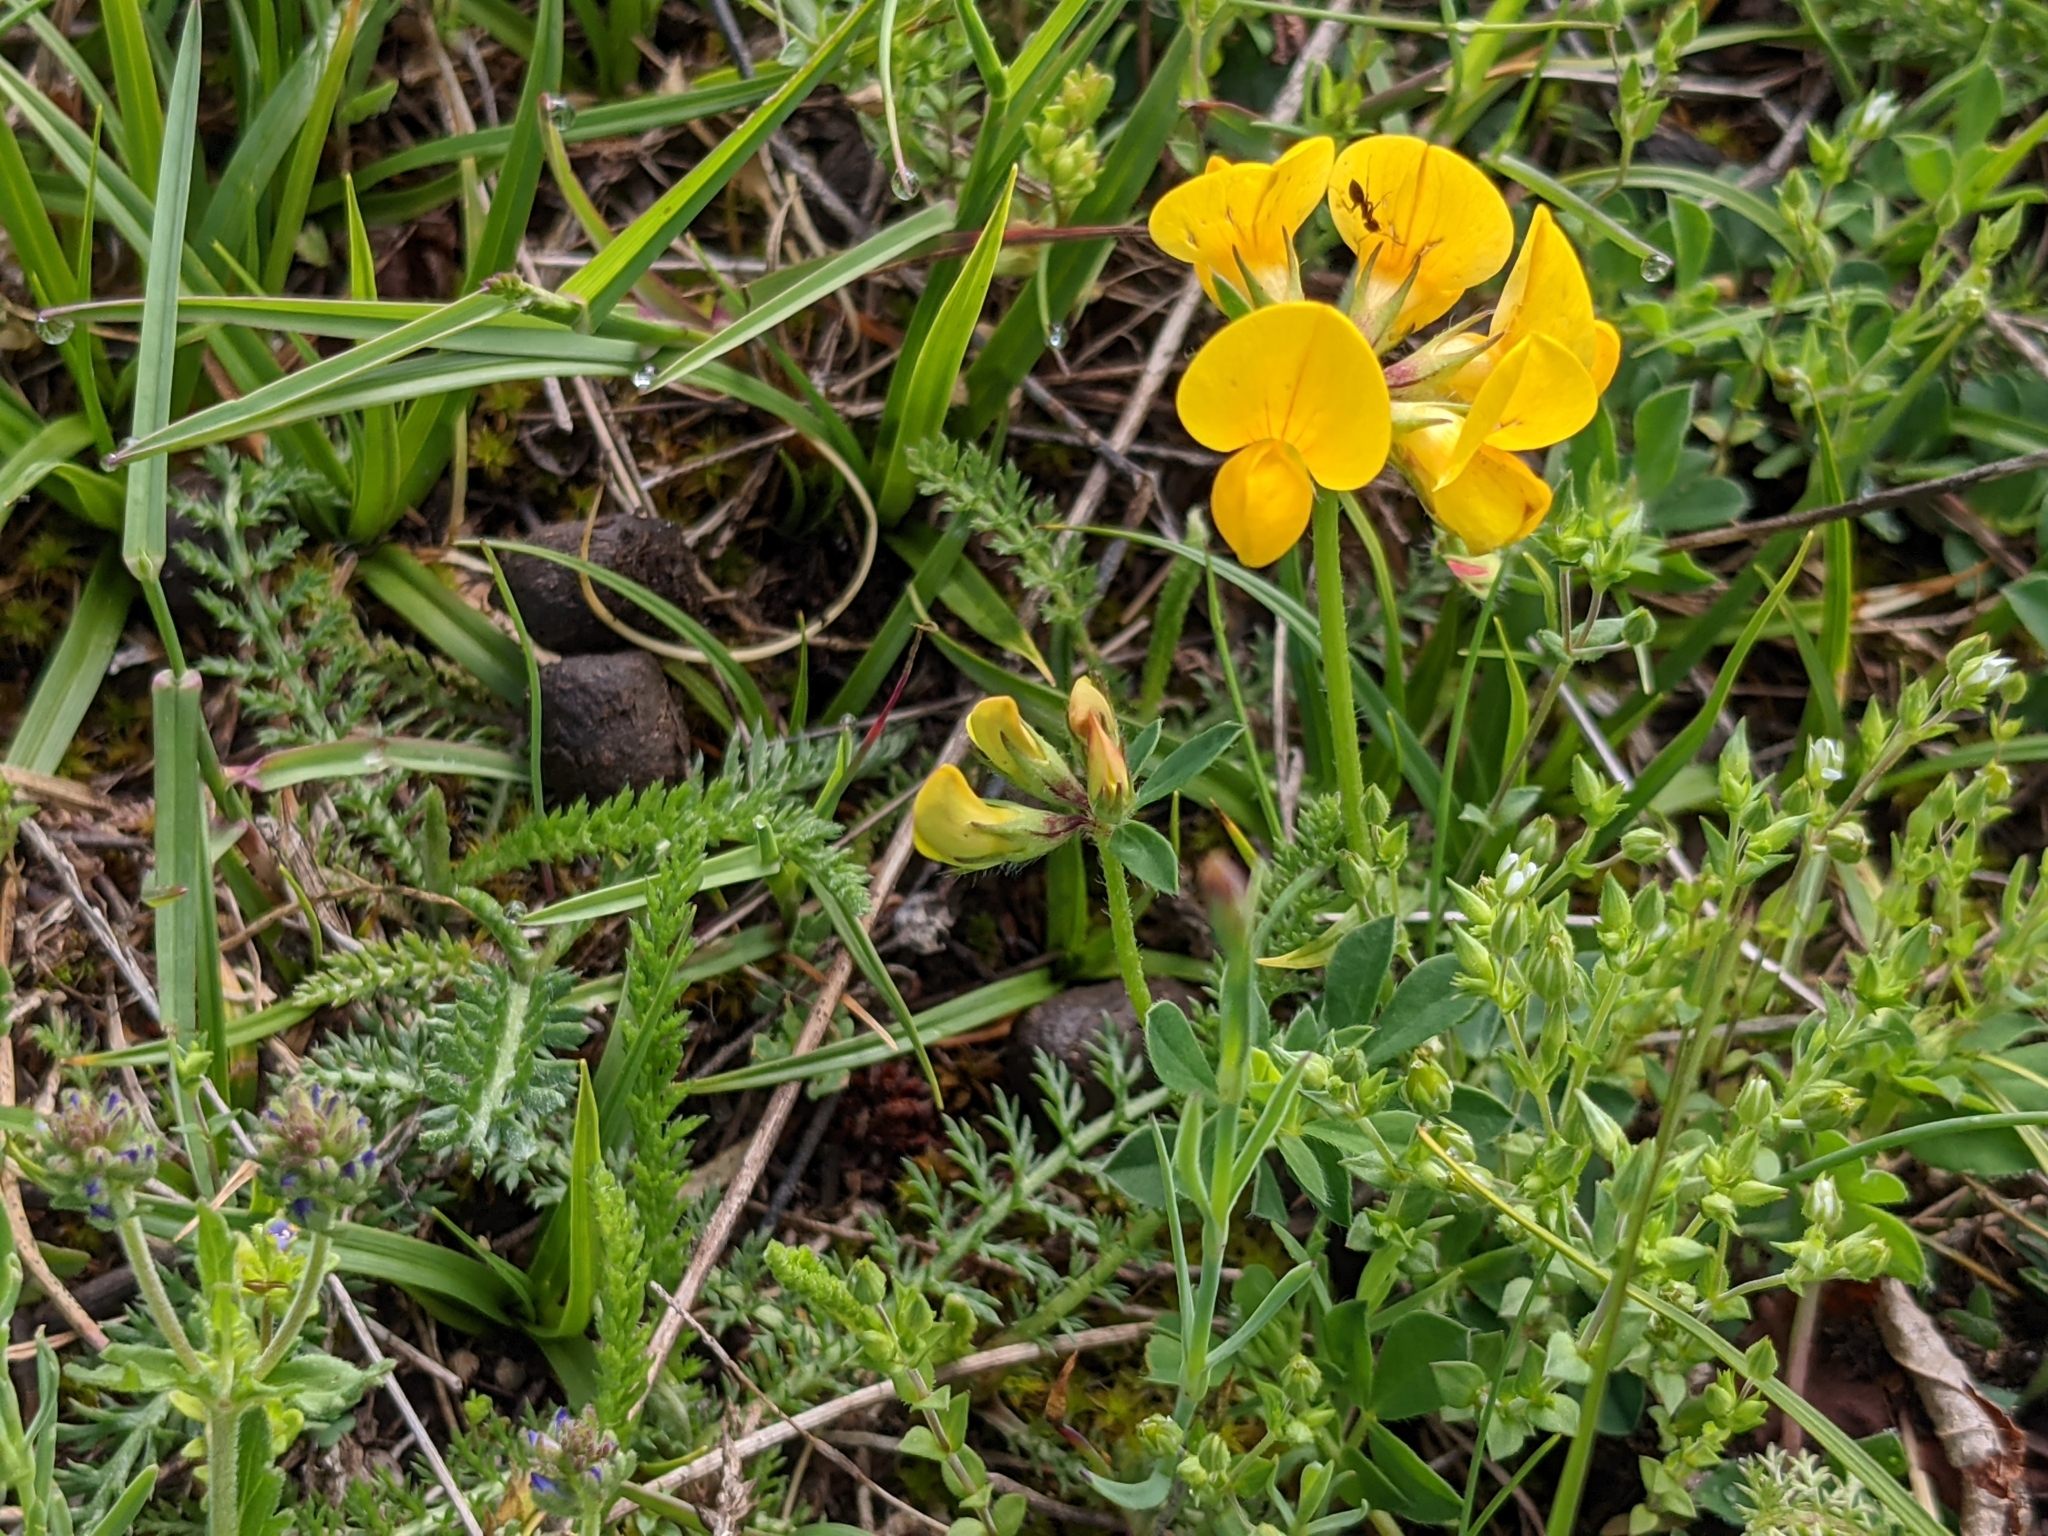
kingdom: Plantae
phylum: Tracheophyta
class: Magnoliopsida
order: Fabales
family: Fabaceae
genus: Lotus
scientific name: Lotus corniculatus
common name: Common bird's-foot-trefoil
